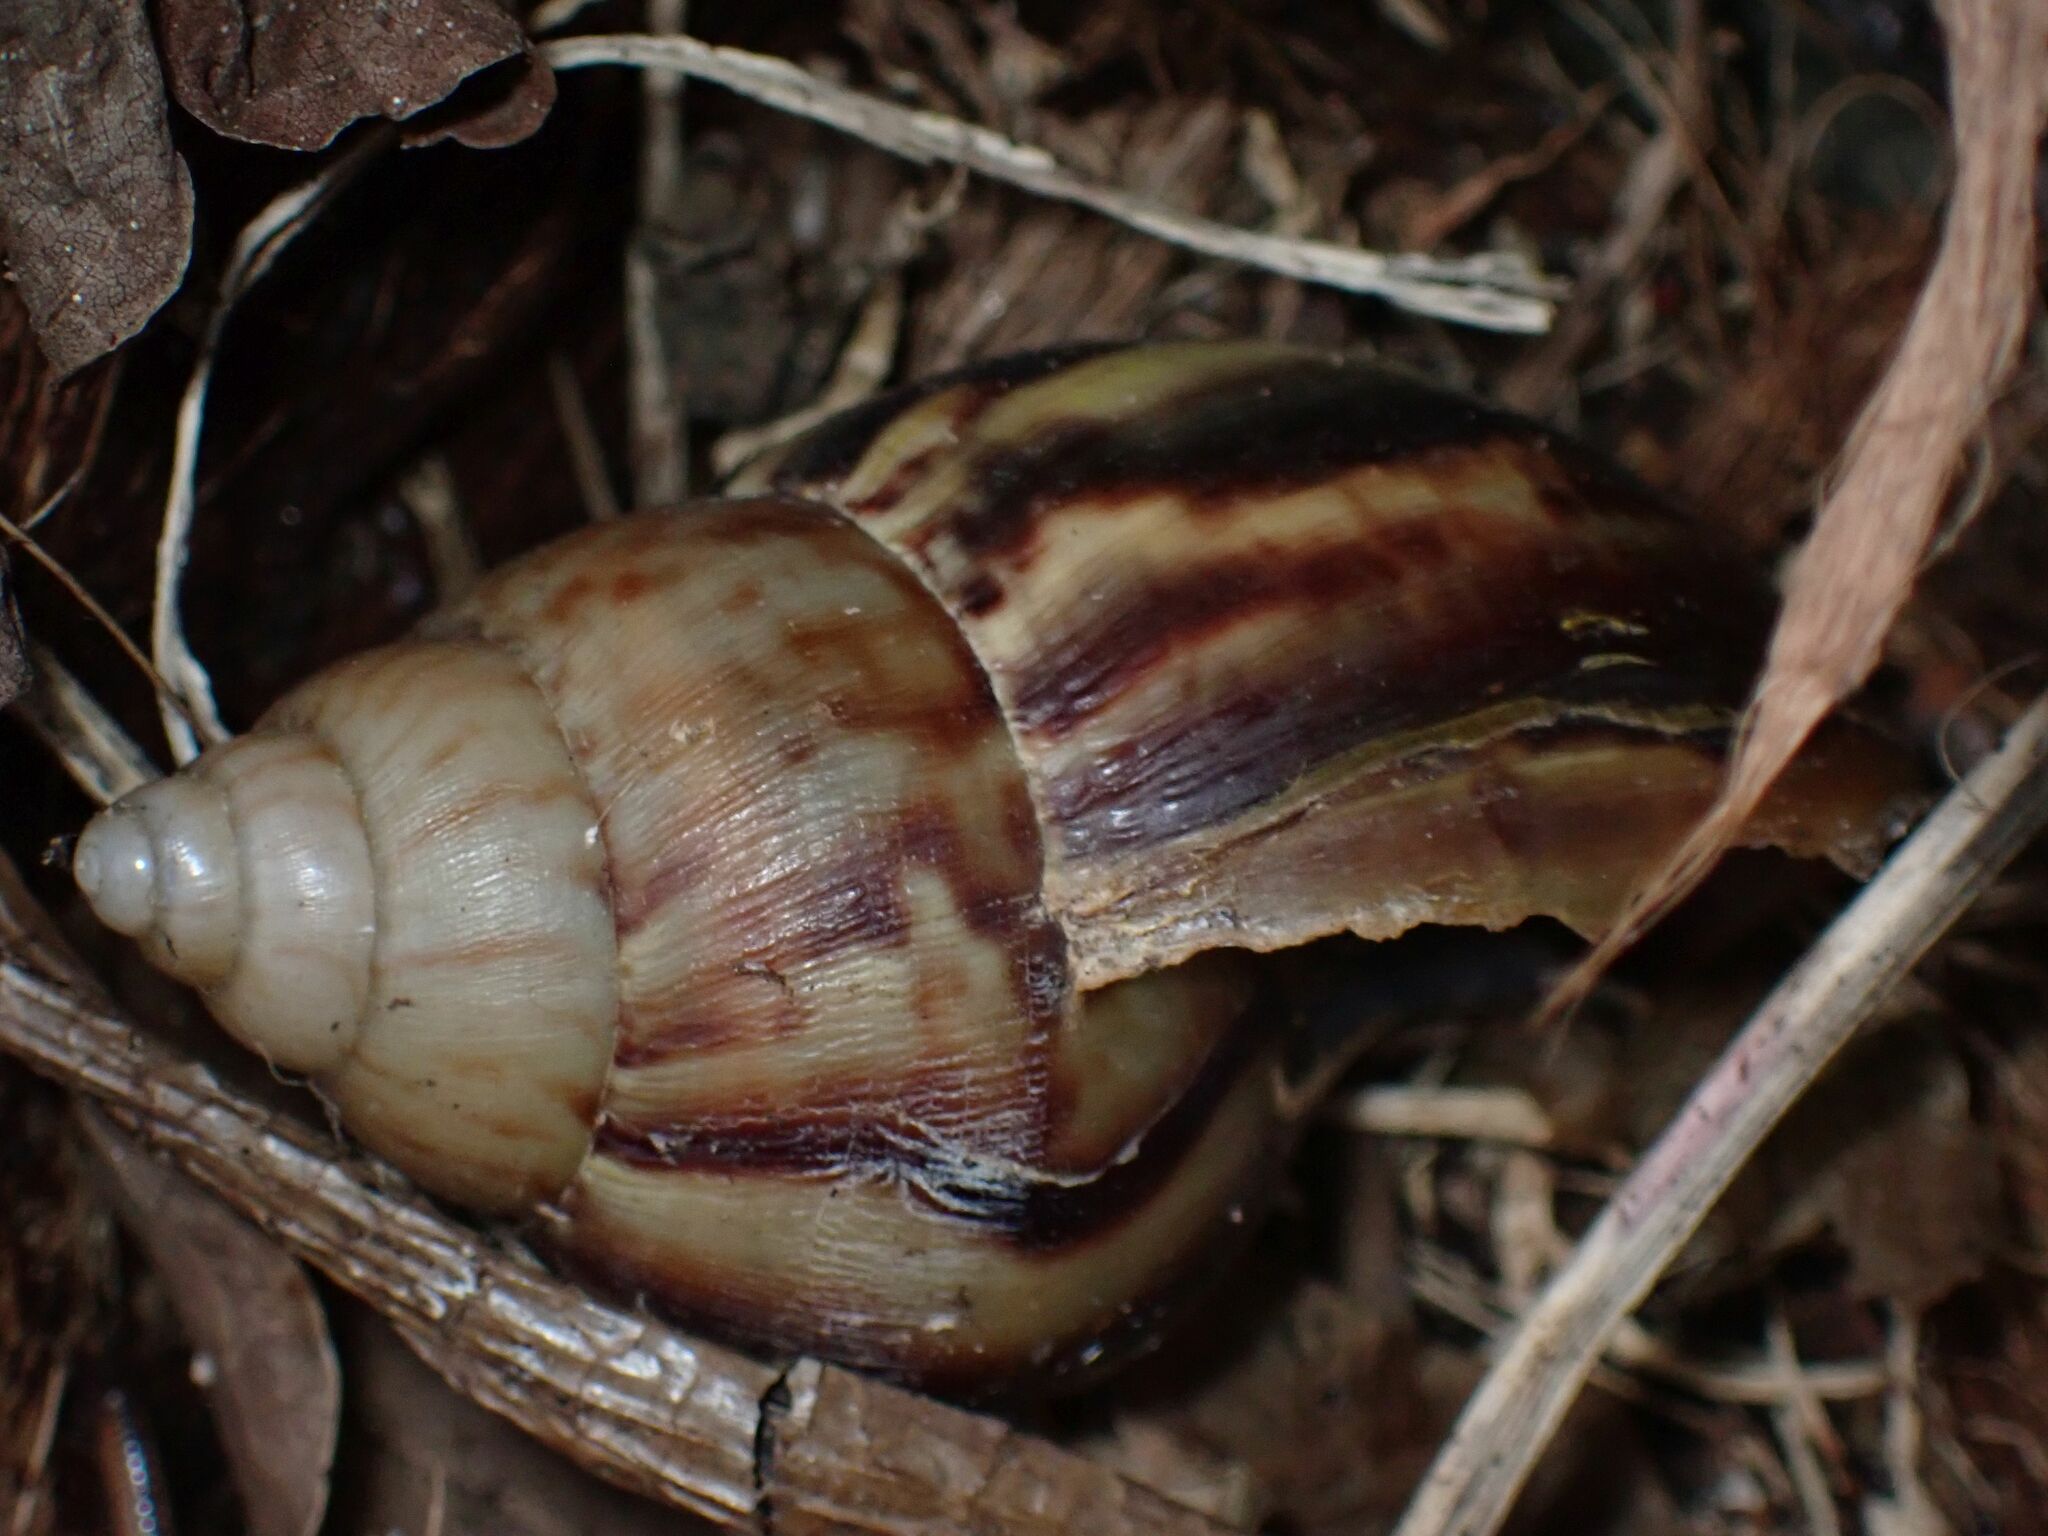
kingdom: Animalia
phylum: Mollusca
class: Gastropoda
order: Stylommatophora
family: Achatinidae
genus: Lissachatina
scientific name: Lissachatina fulica
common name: Giant african snail
